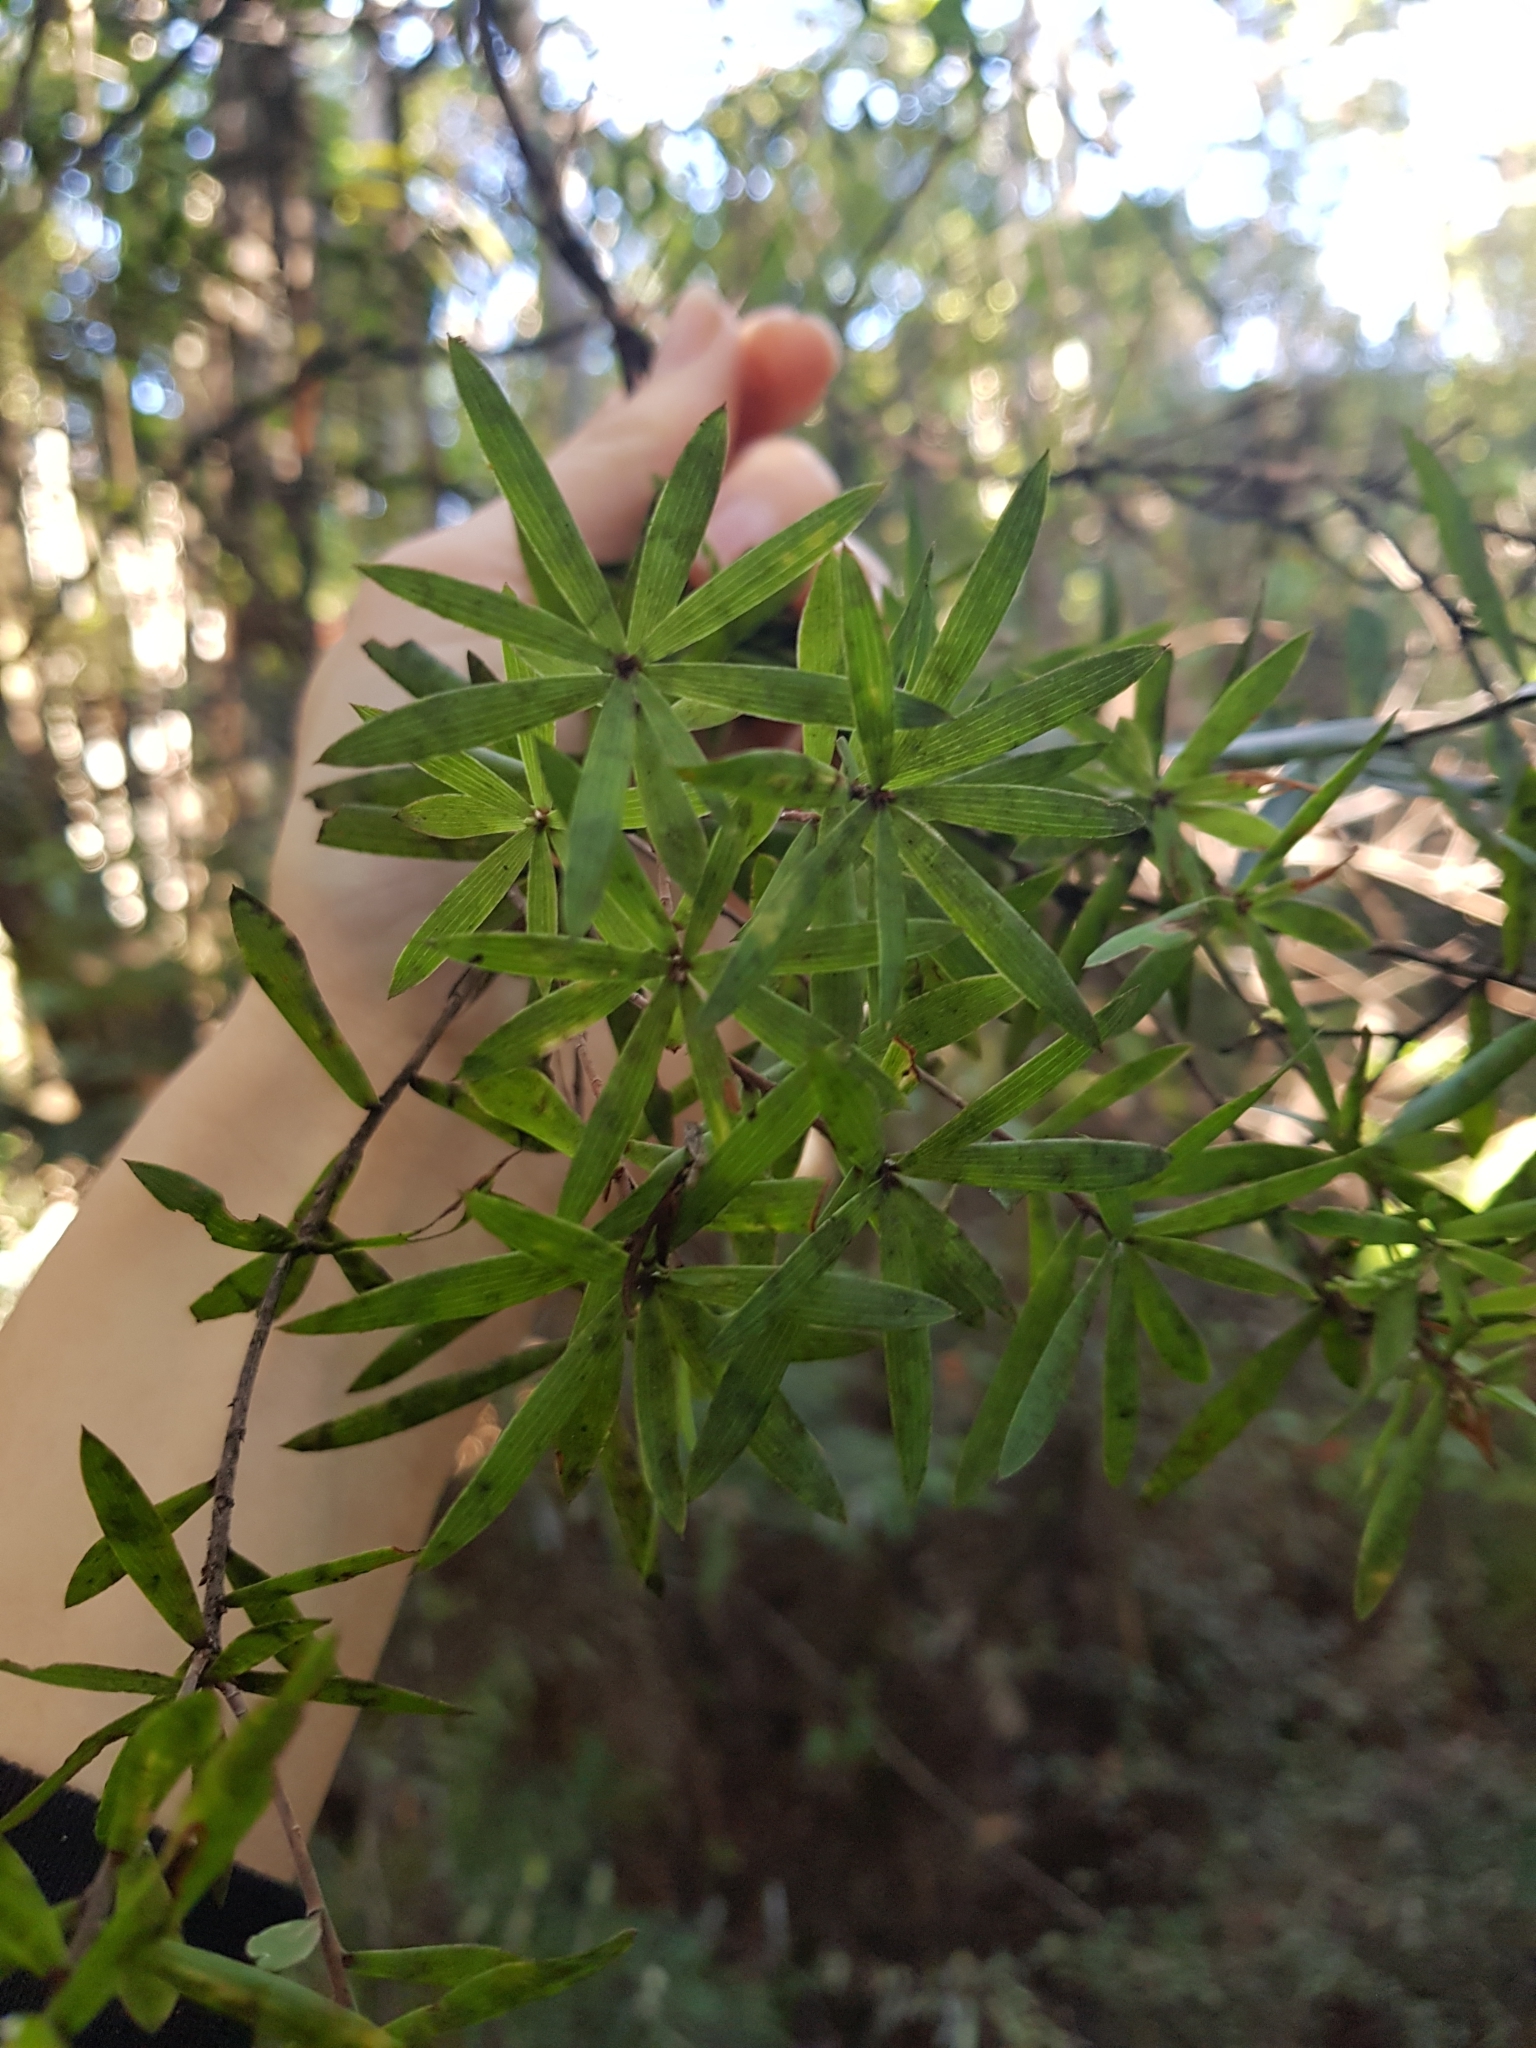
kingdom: Plantae
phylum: Tracheophyta
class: Magnoliopsida
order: Ericales
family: Ericaceae
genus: Leucopogon
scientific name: Leucopogon fasciculatus
